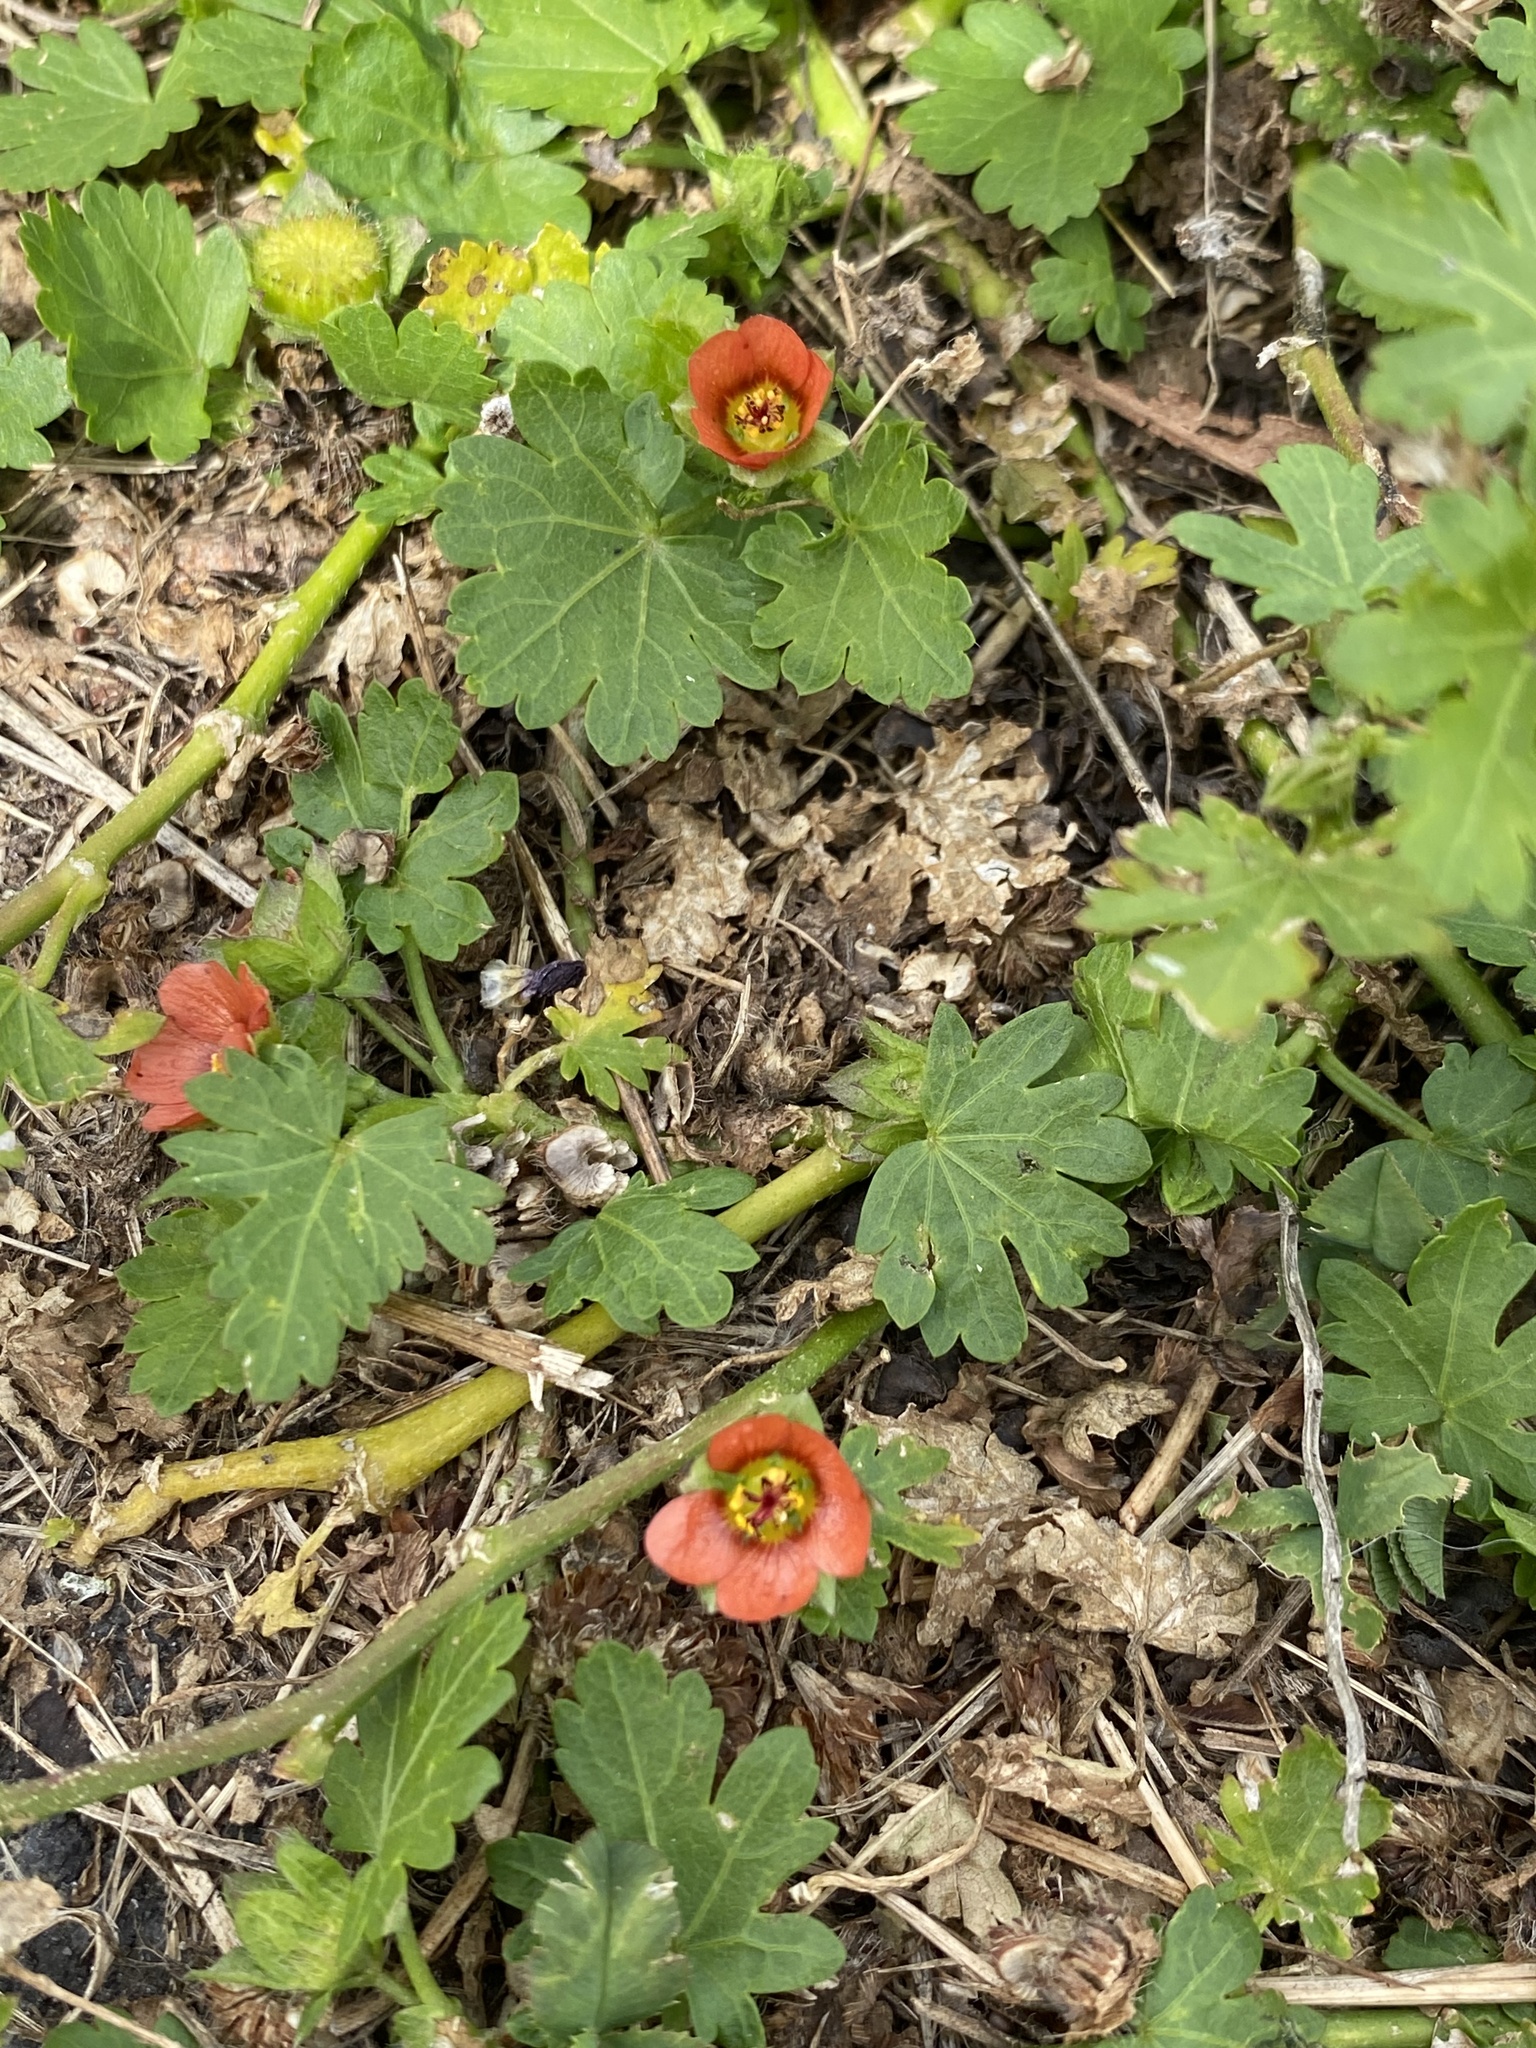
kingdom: Plantae
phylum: Tracheophyta
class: Magnoliopsida
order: Malvales
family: Malvaceae
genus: Modiola
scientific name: Modiola caroliniana
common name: Carolina bristlemallow
